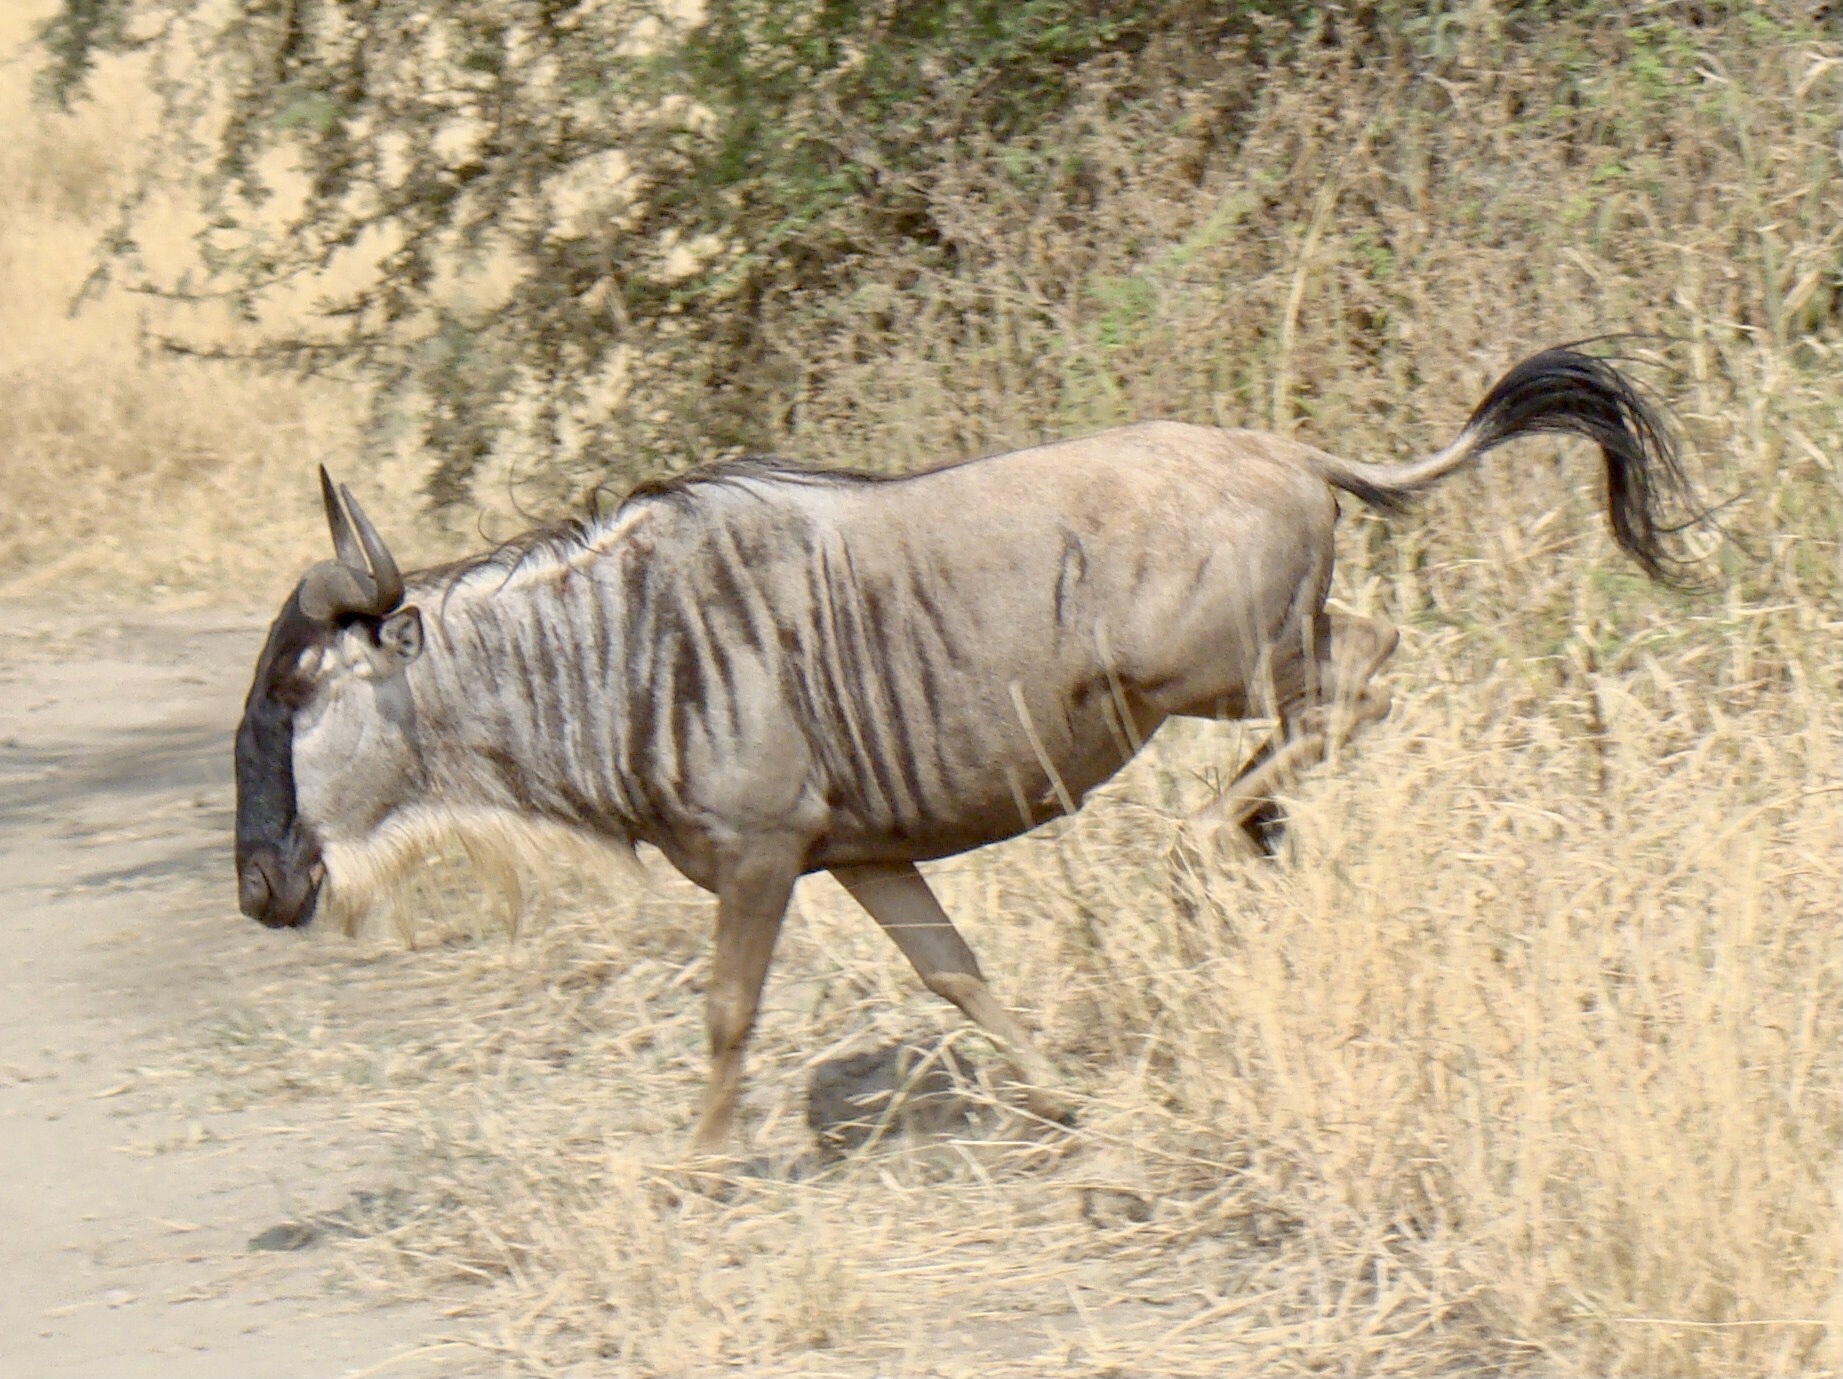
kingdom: Animalia
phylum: Chordata
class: Mammalia
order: Artiodactyla
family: Bovidae
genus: Connochaetes
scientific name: Connochaetes taurinus
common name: Blue wildebeest
